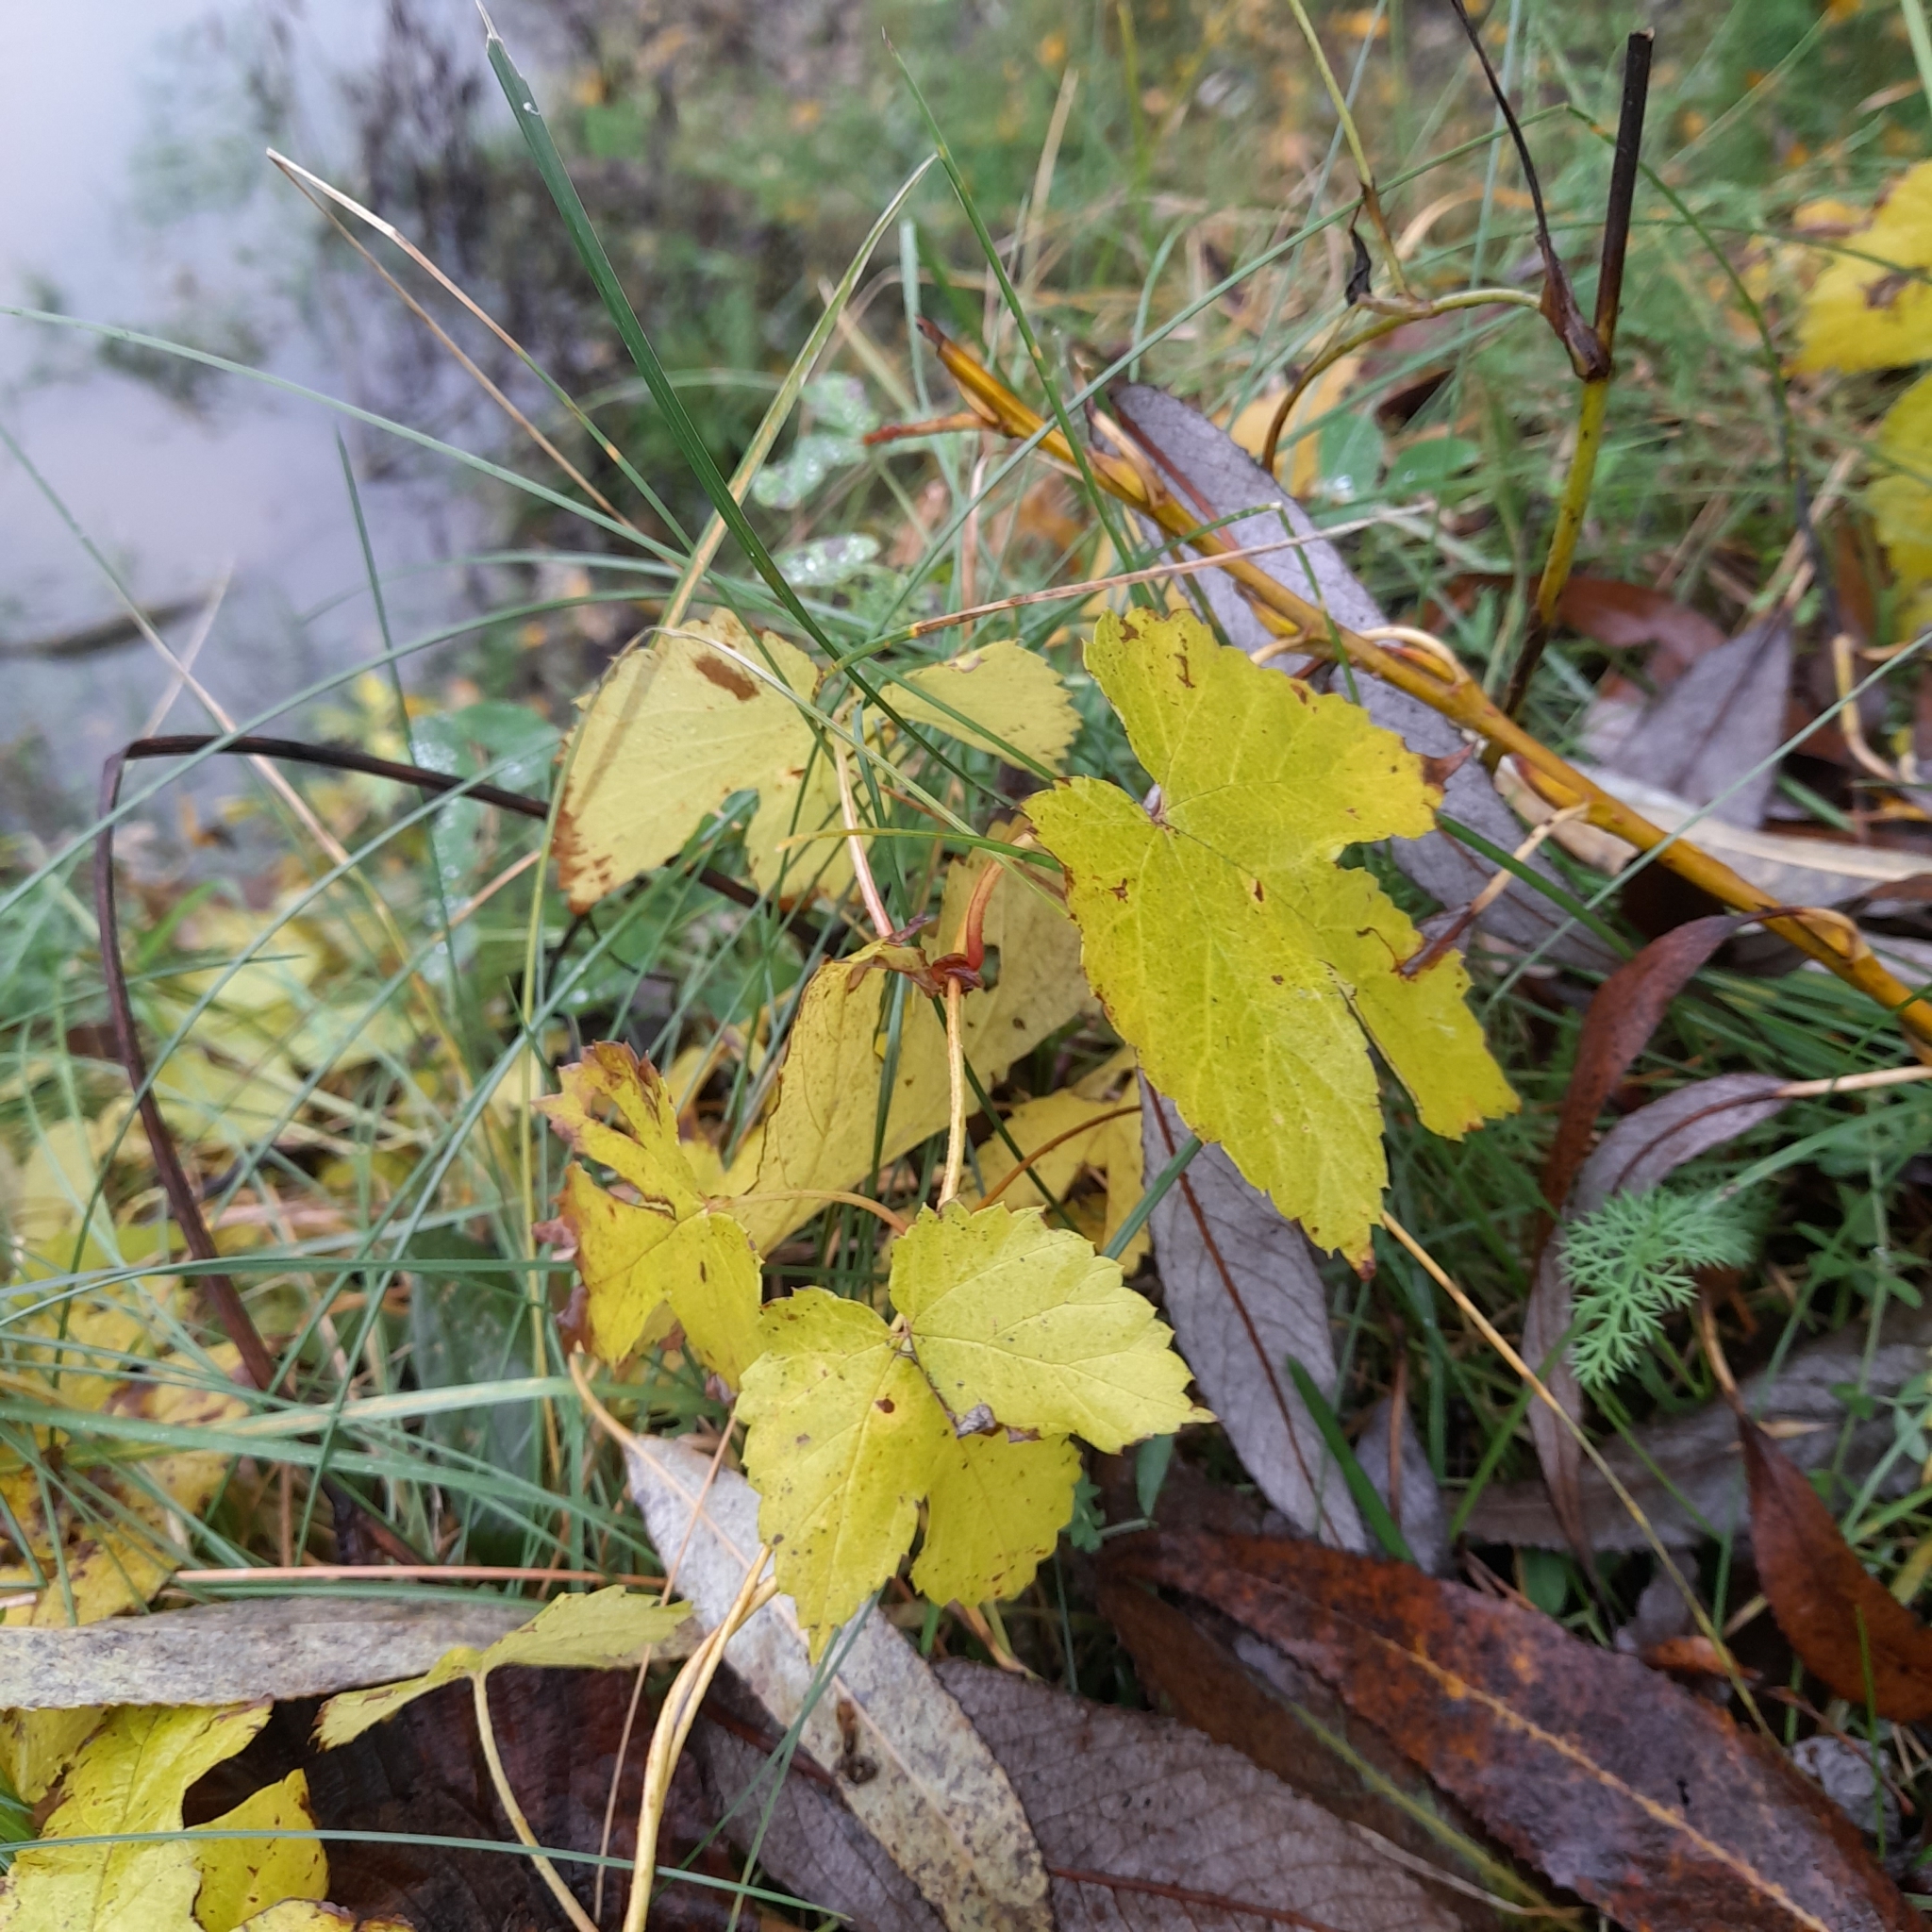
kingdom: Plantae
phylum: Tracheophyta
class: Magnoliopsida
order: Rosales
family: Cannabaceae
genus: Humulus
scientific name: Humulus lupulus
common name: Hop
